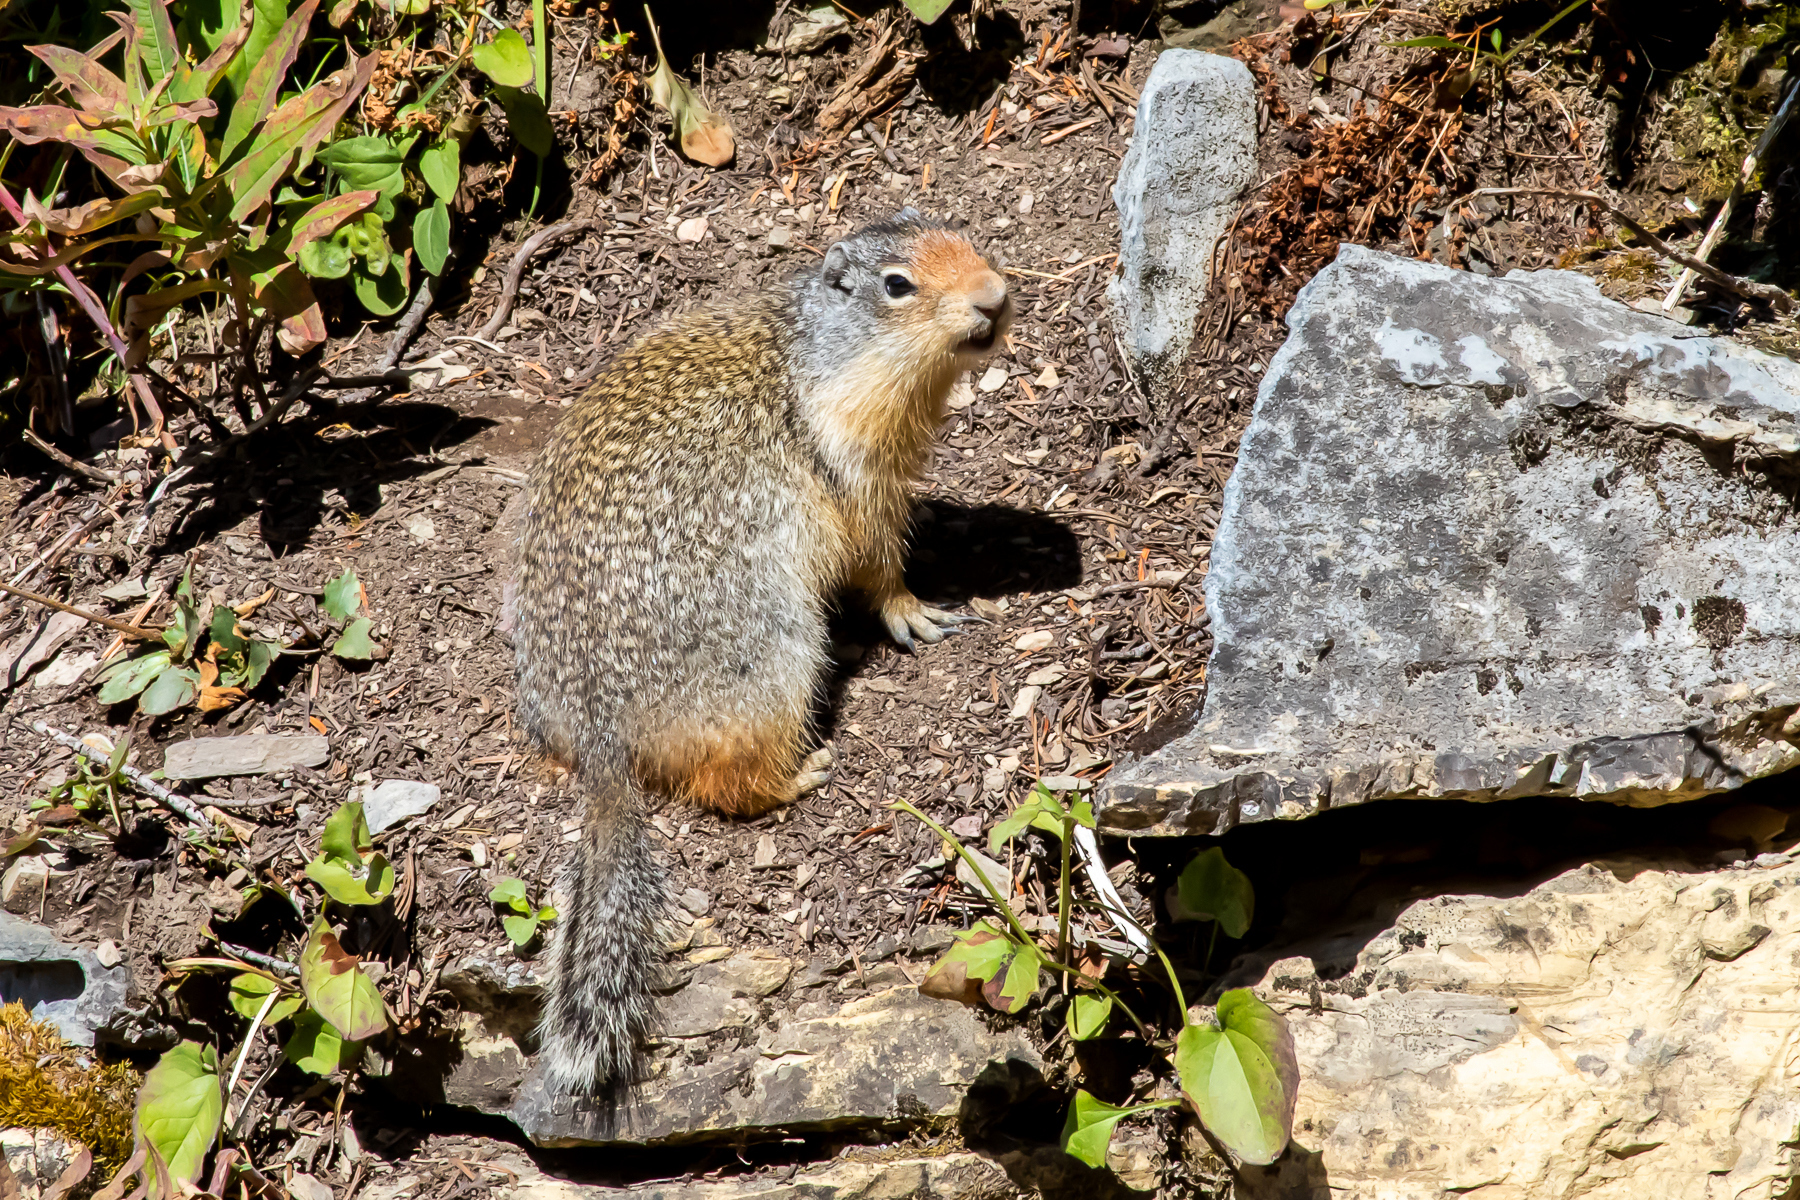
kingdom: Animalia
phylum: Chordata
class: Mammalia
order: Rodentia
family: Sciuridae
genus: Urocitellus
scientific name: Urocitellus columbianus
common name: Columbian ground squirrel
